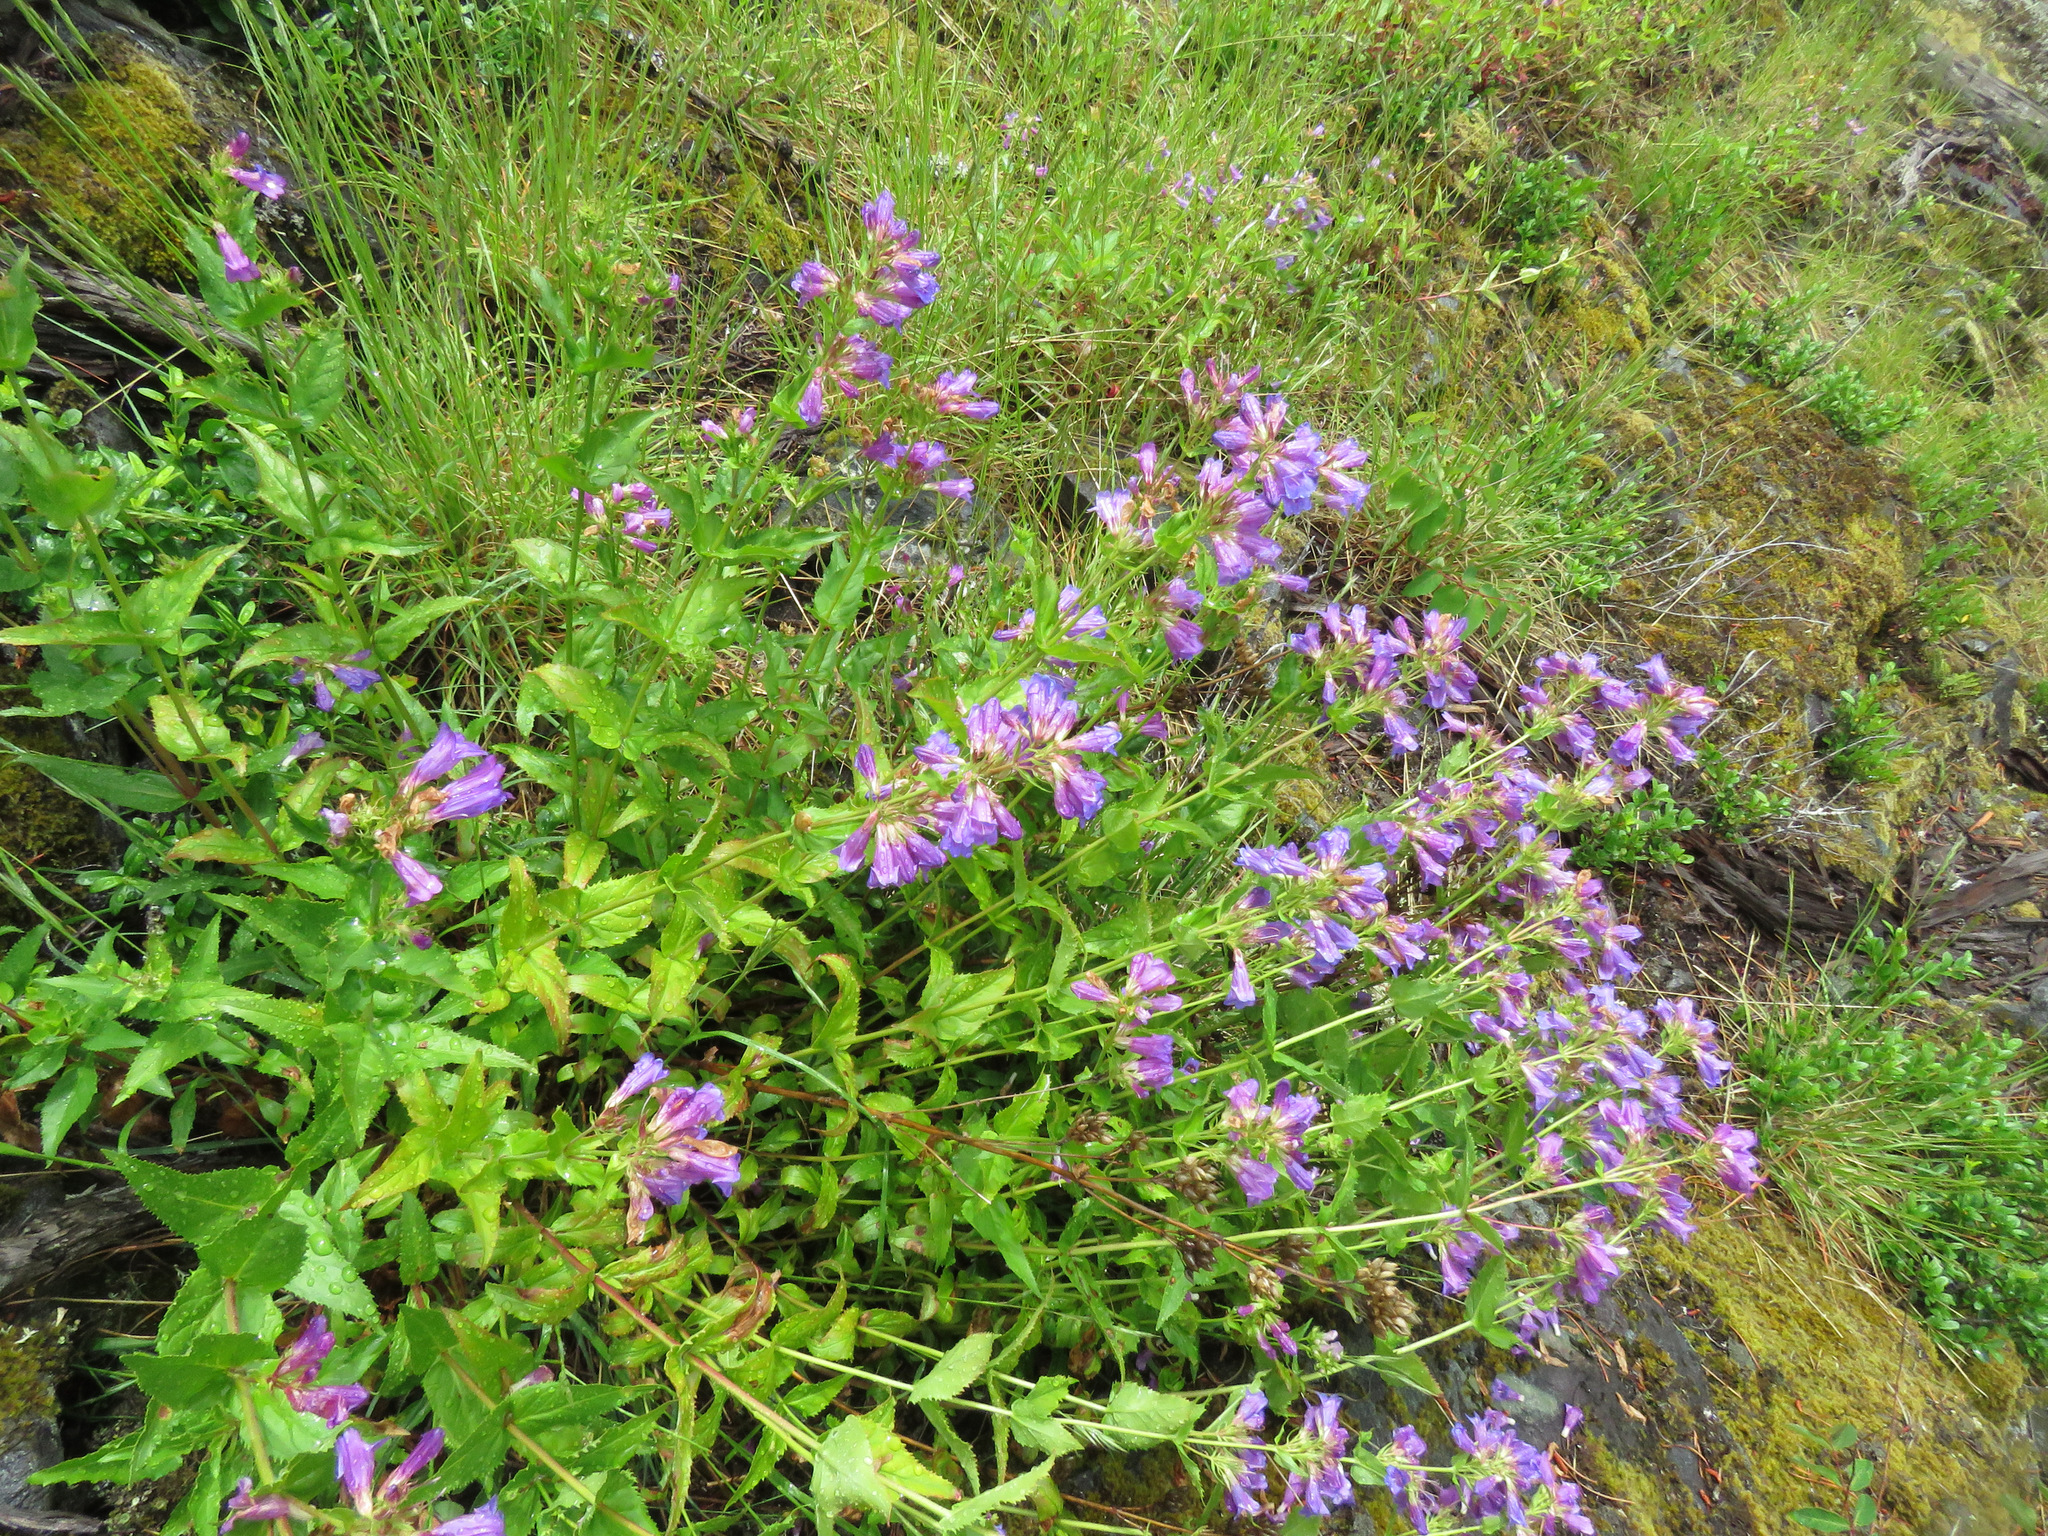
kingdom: Plantae
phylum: Tracheophyta
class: Magnoliopsida
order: Lamiales
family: Plantaginaceae
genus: Penstemon
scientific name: Penstemon serrulatus
